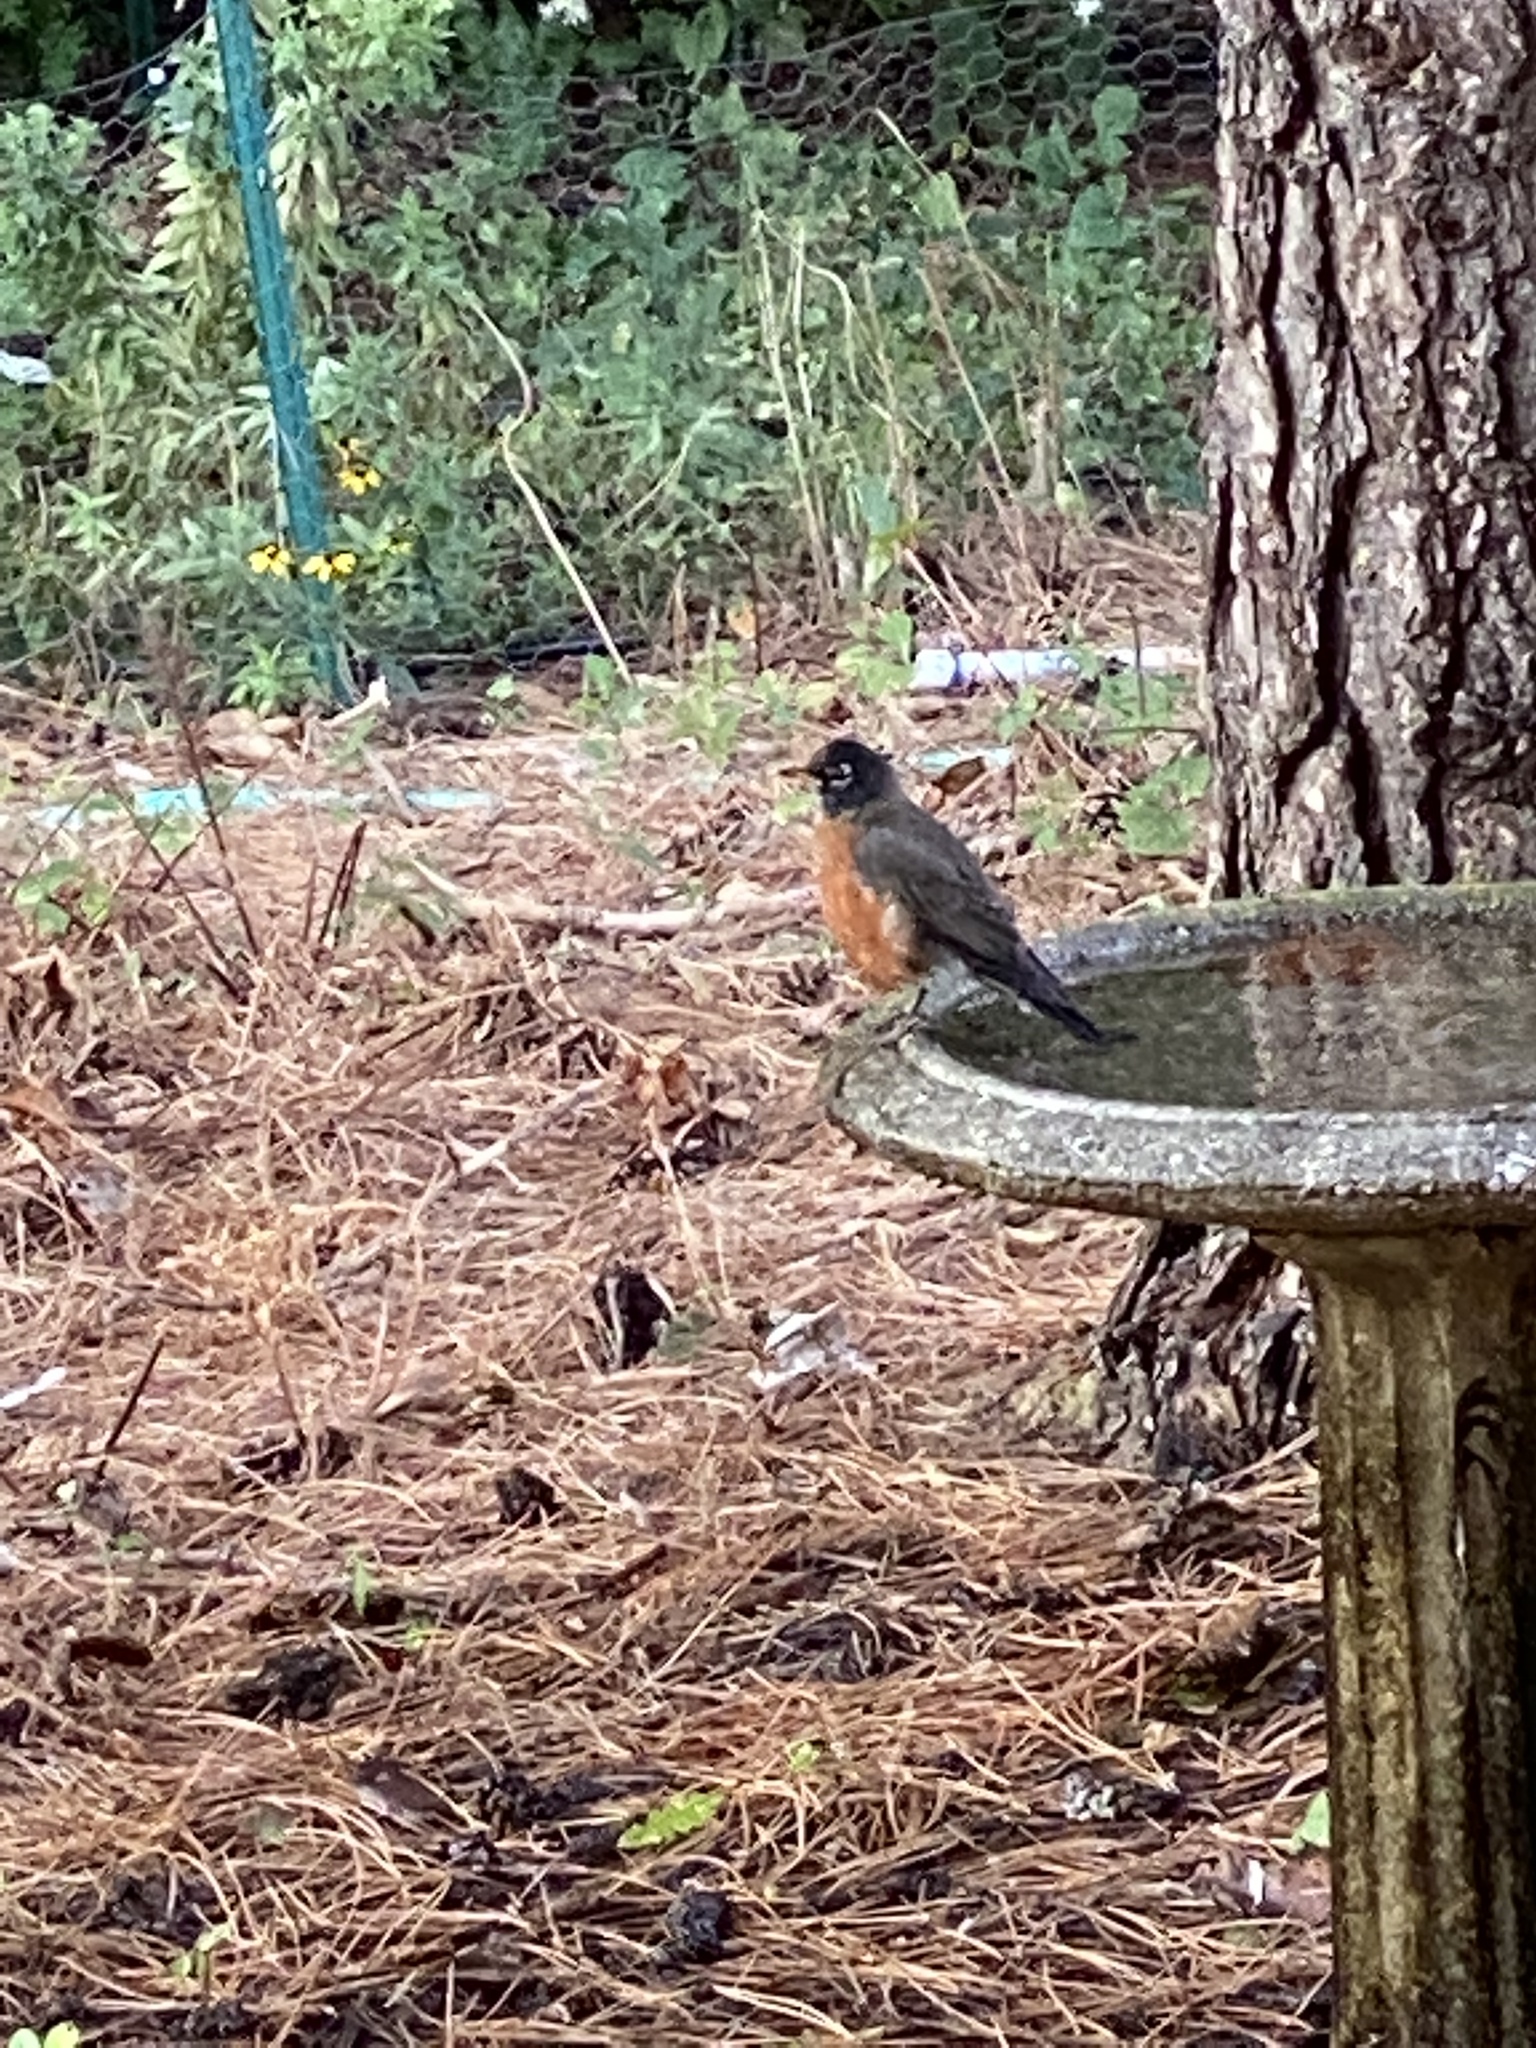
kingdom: Animalia
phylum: Chordata
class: Aves
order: Passeriformes
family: Turdidae
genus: Turdus
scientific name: Turdus migratorius
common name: American robin
